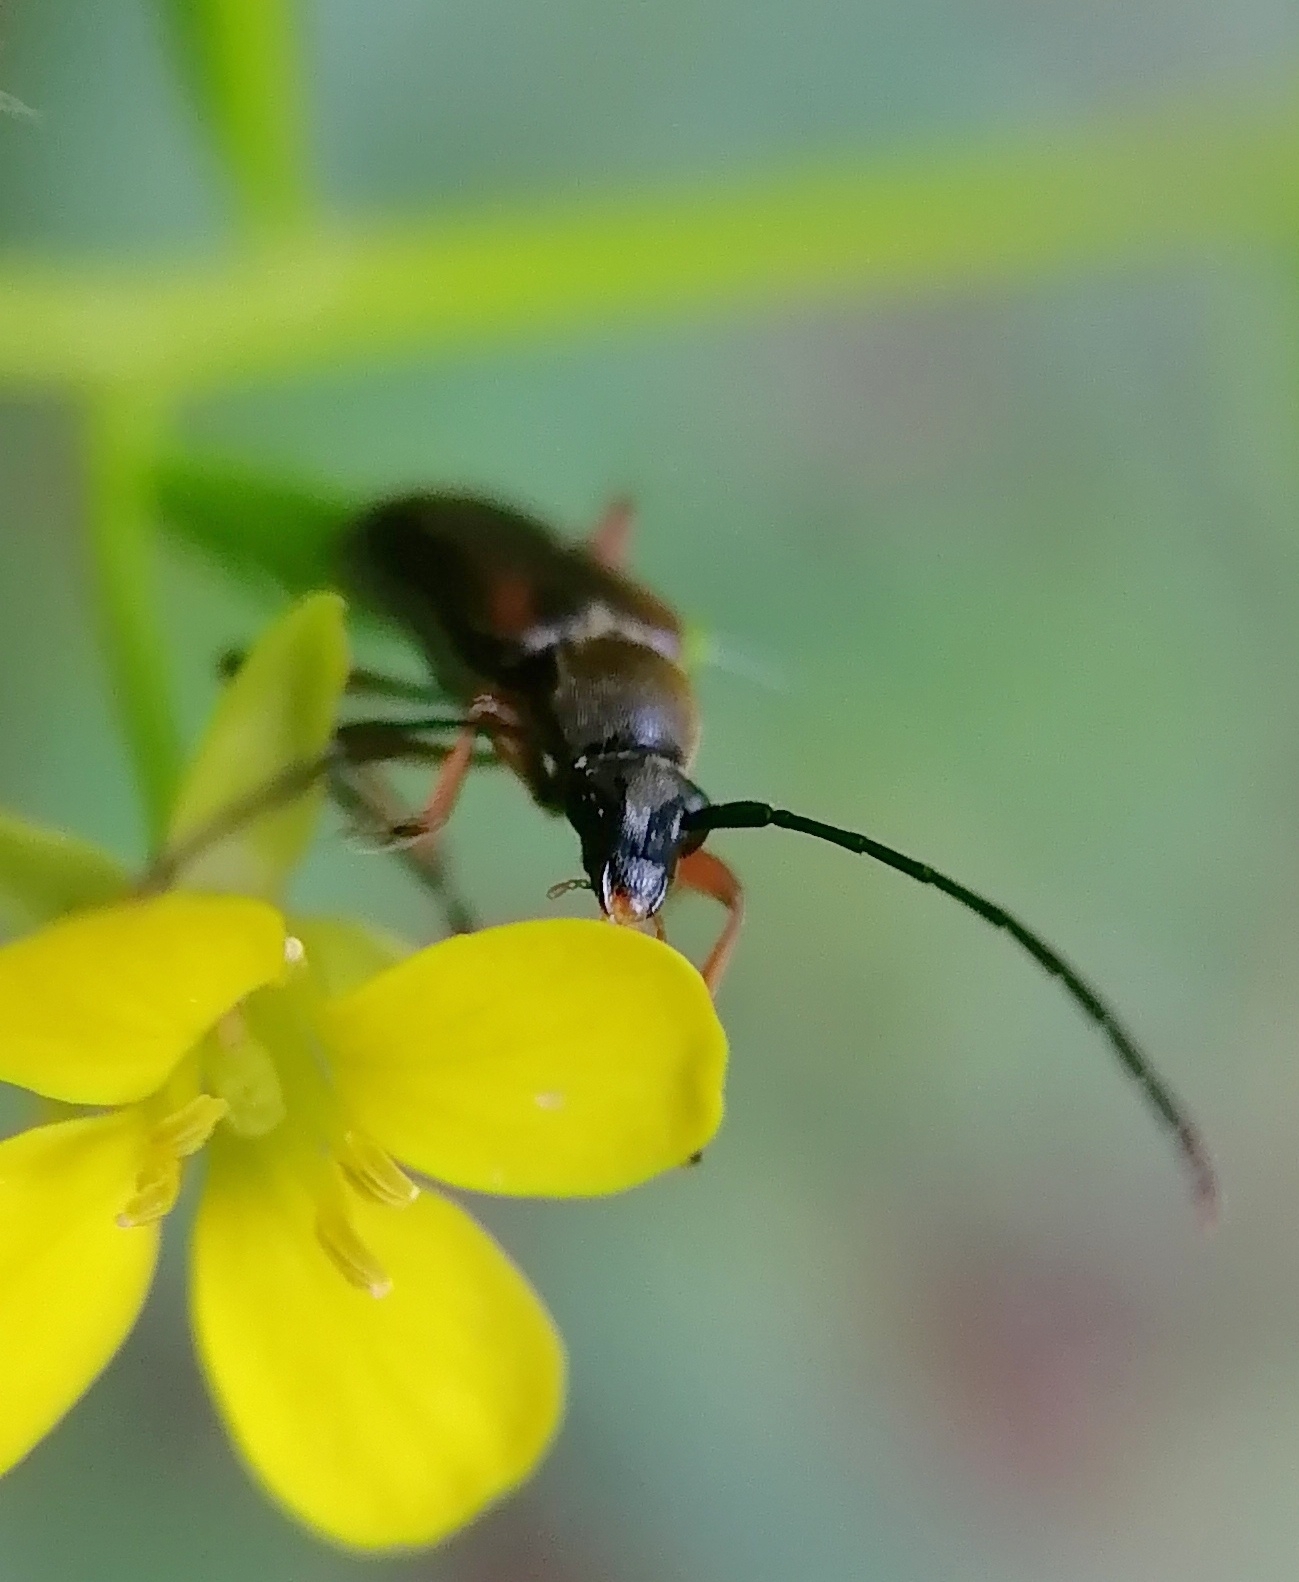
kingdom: Animalia
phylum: Arthropoda
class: Insecta
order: Coleoptera
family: Cerambycidae
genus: Alosterna
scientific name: Alosterna tabacicolor
